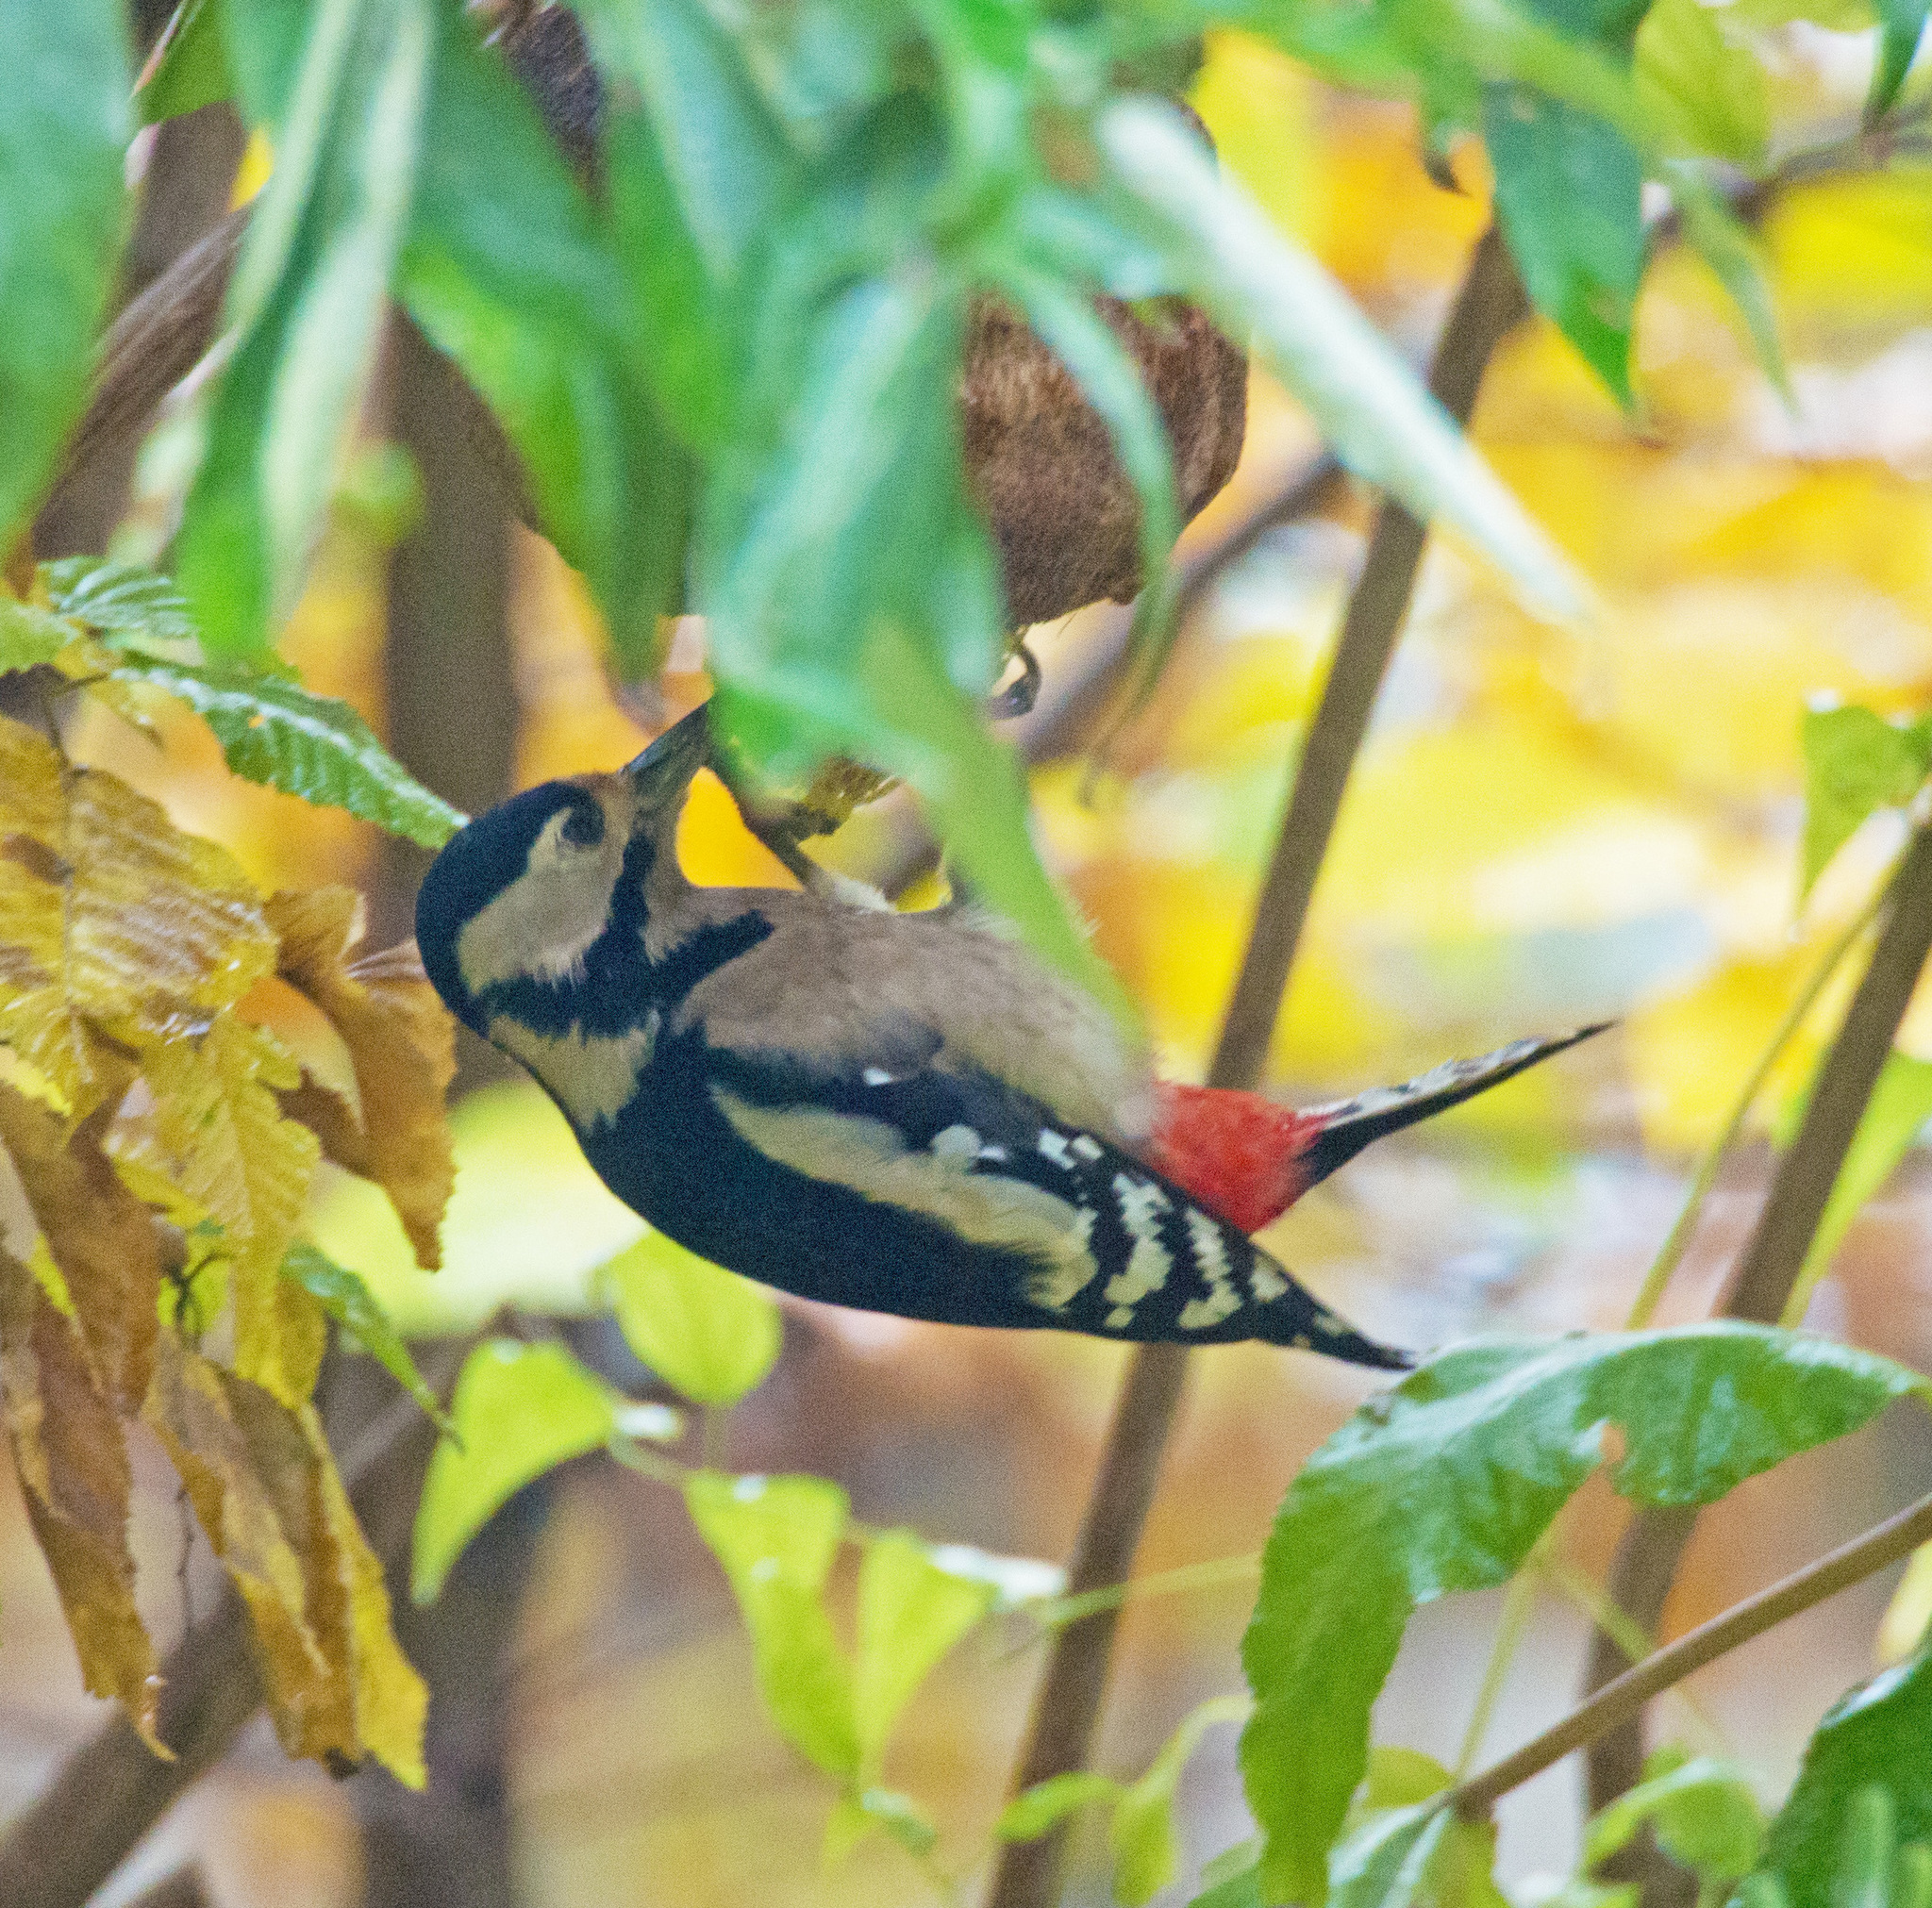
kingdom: Animalia
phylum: Chordata
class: Aves
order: Piciformes
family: Picidae
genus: Dendrocopos
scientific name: Dendrocopos major
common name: Great spotted woodpecker
